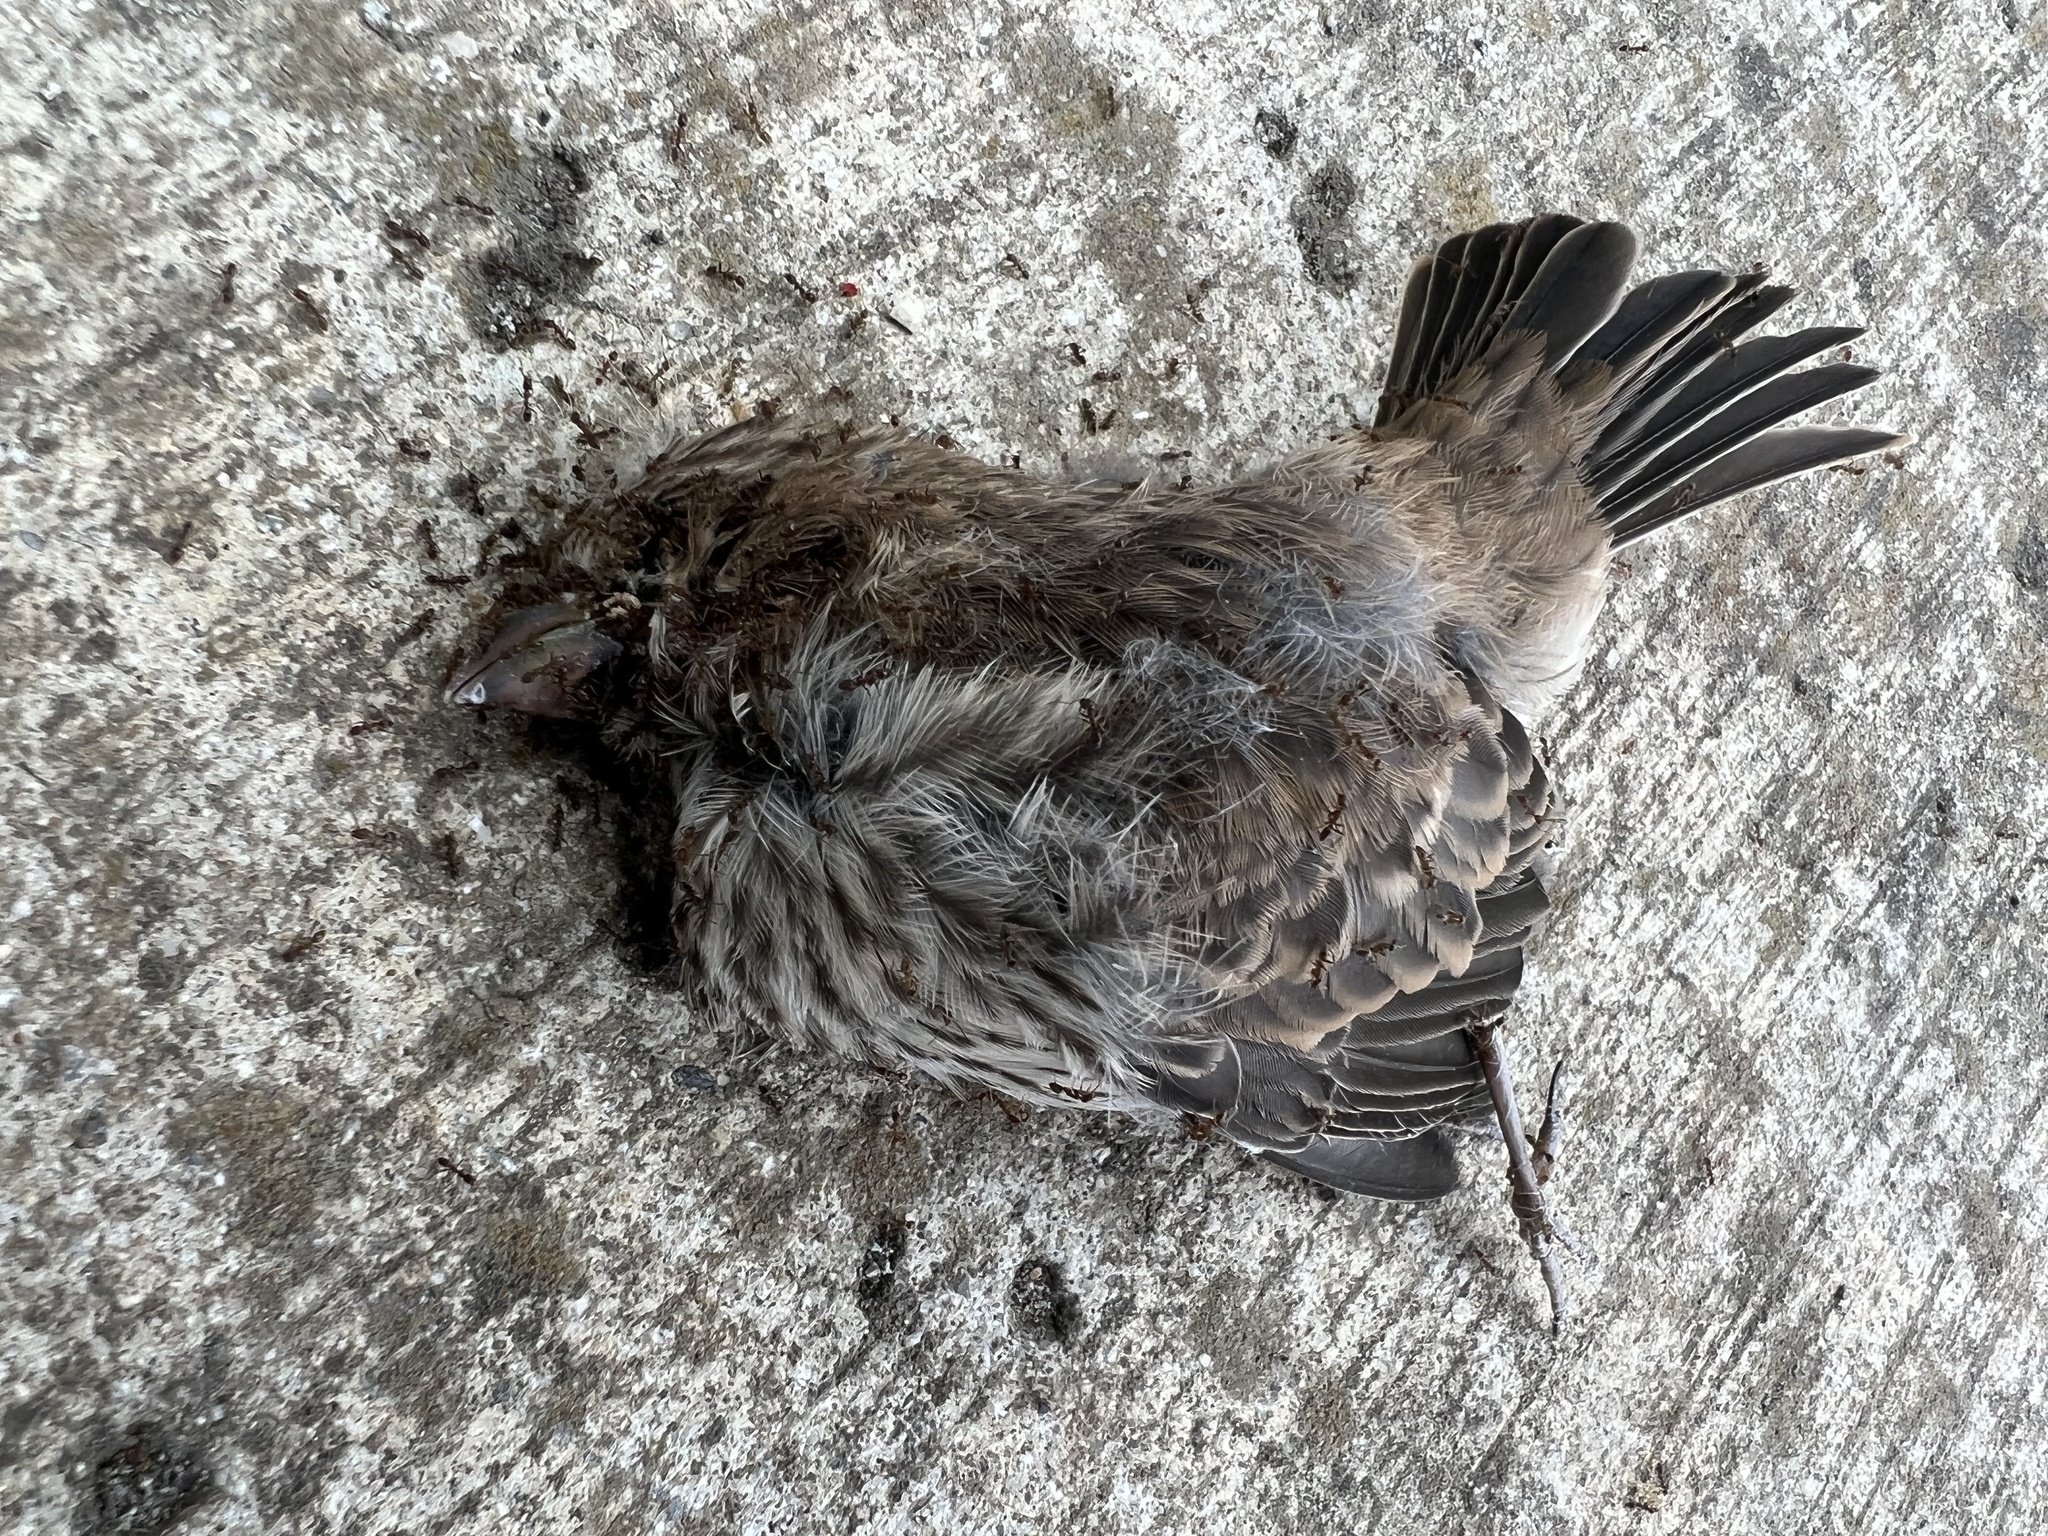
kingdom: Animalia
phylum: Chordata
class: Aves
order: Passeriformes
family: Fringillidae
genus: Haemorhous
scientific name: Haemorhous mexicanus
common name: House finch
